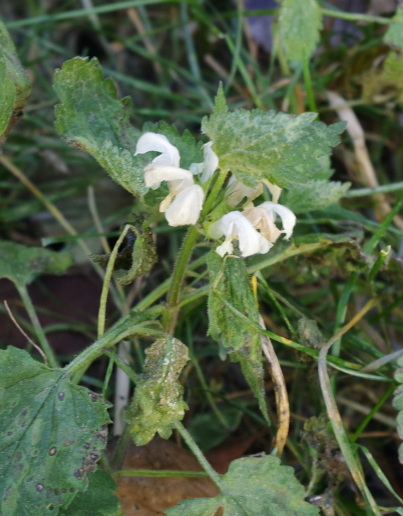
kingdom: Plantae
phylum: Tracheophyta
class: Magnoliopsida
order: Lamiales
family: Lamiaceae
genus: Lamium
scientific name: Lamium album
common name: White dead-nettle
